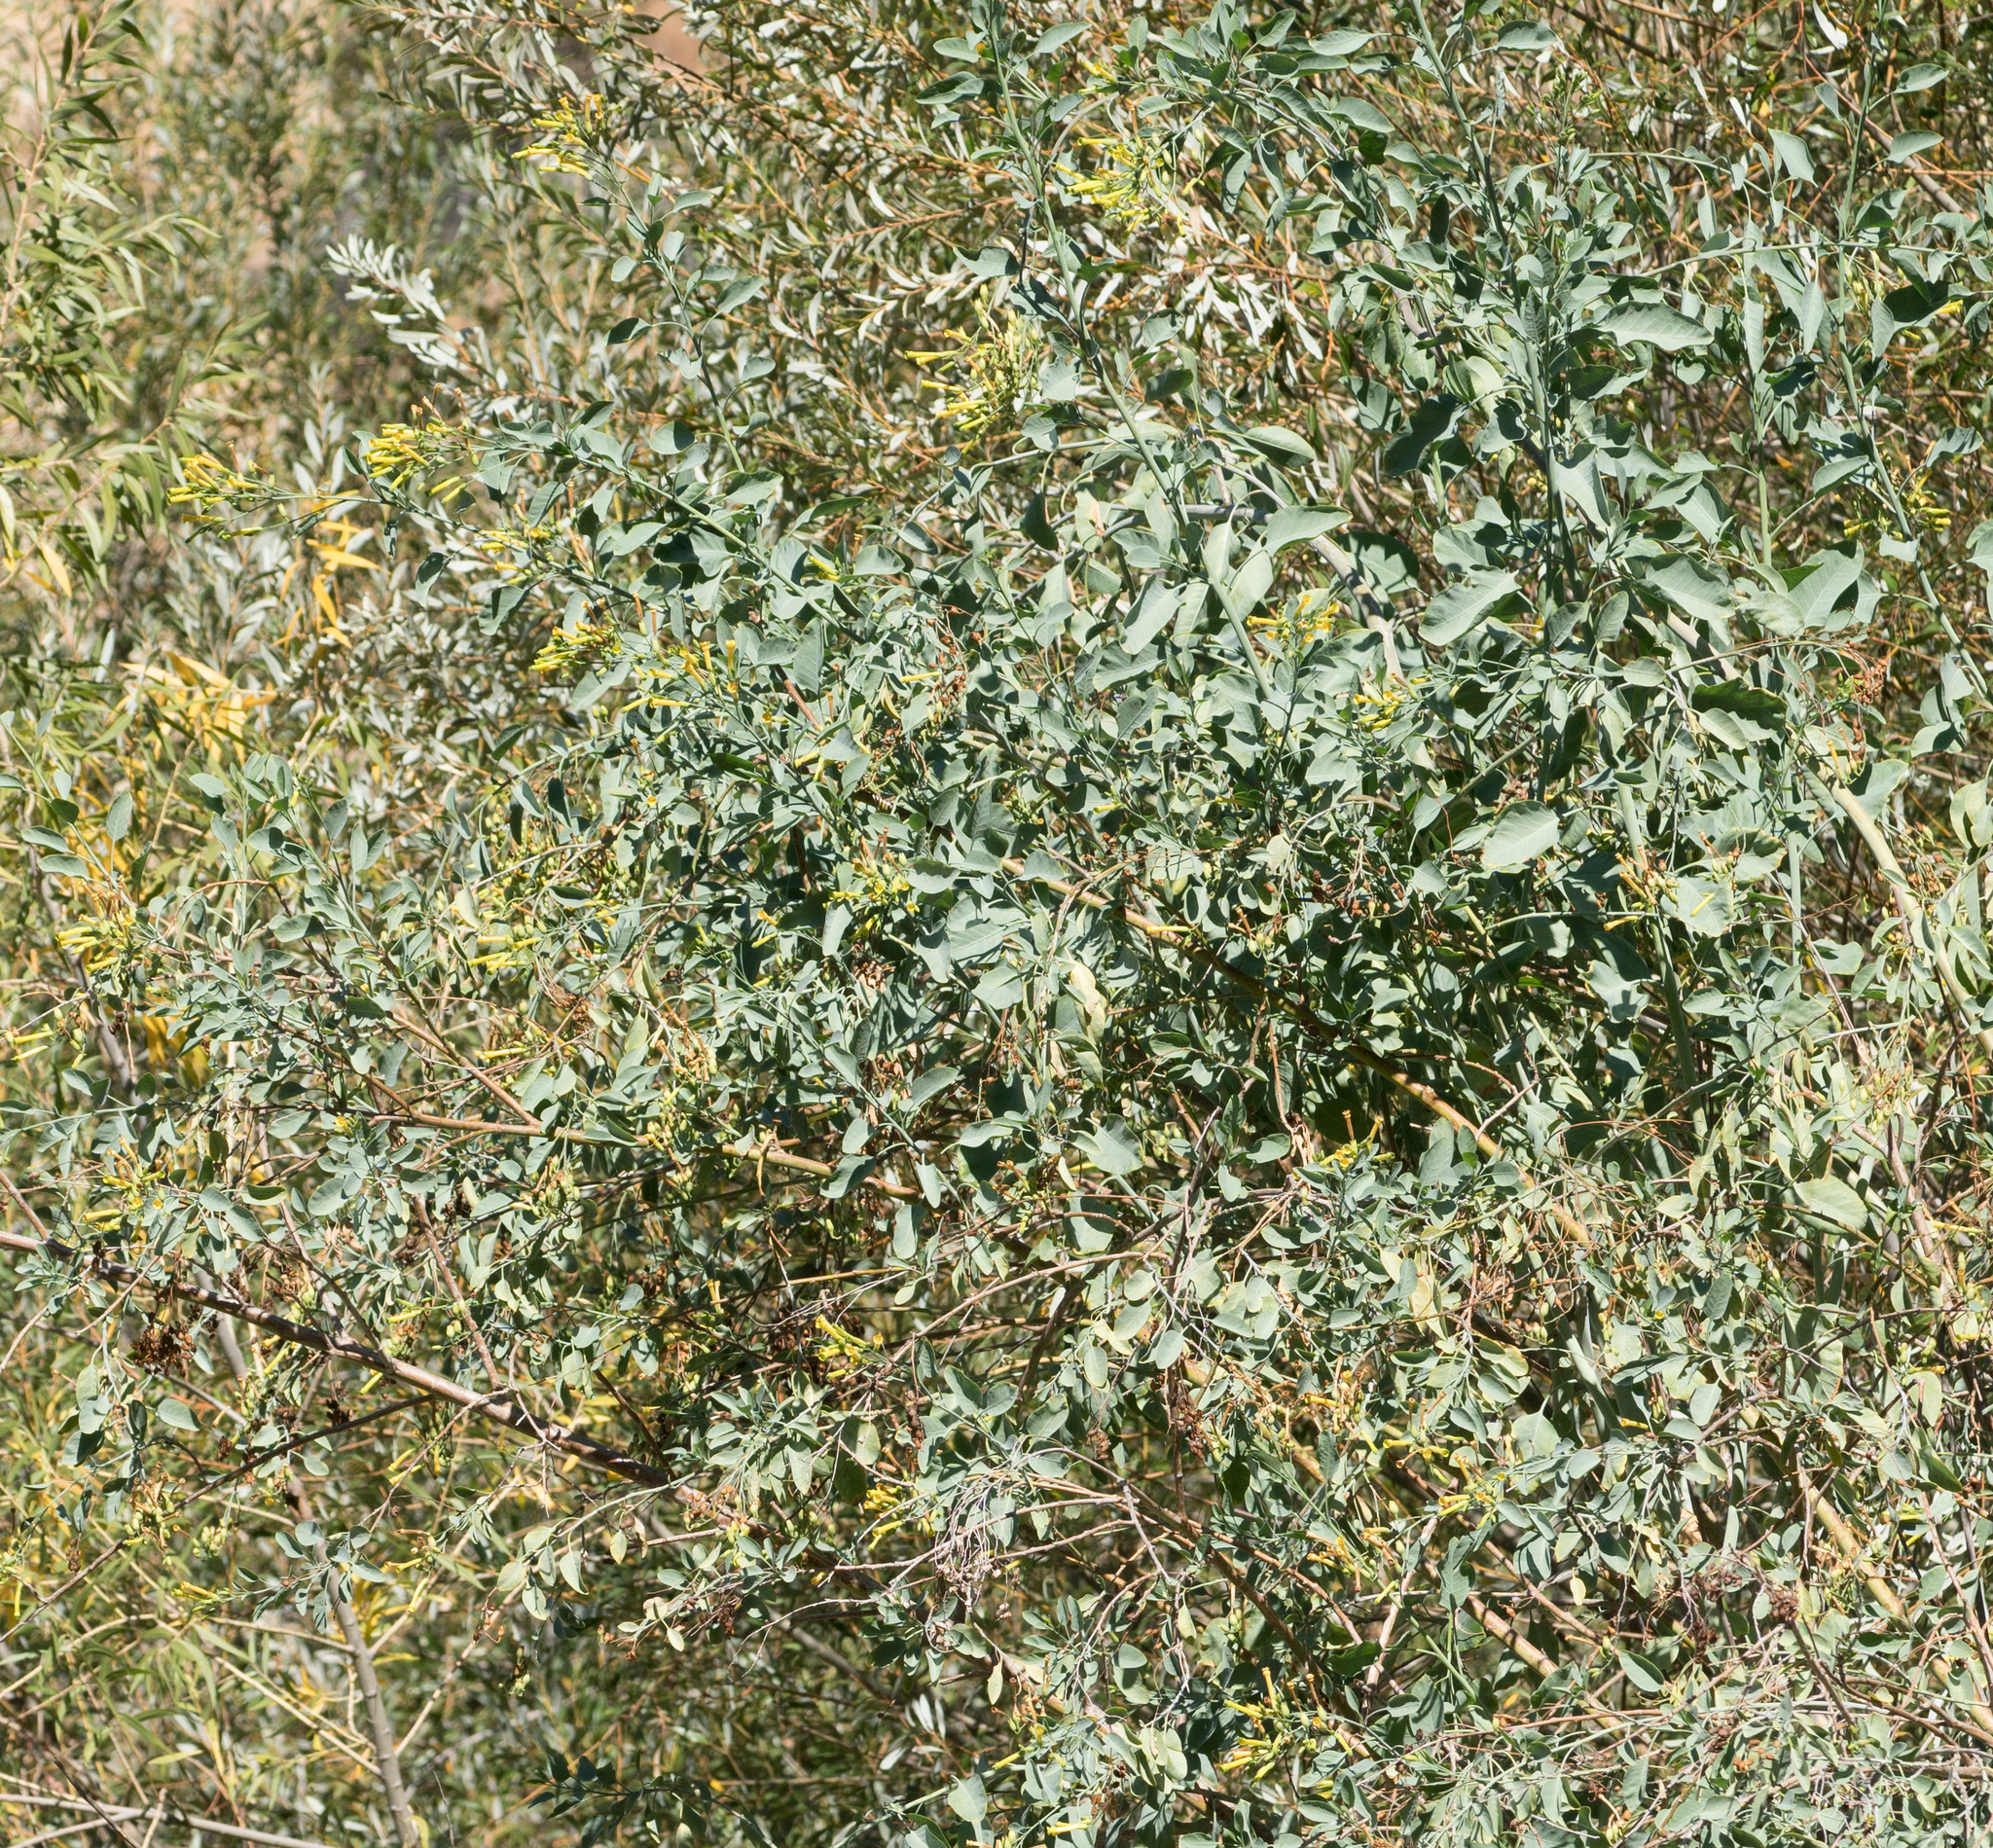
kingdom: Plantae
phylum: Tracheophyta
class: Magnoliopsida
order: Solanales
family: Solanaceae
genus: Nicotiana
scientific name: Nicotiana glauca
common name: Tree tobacco
